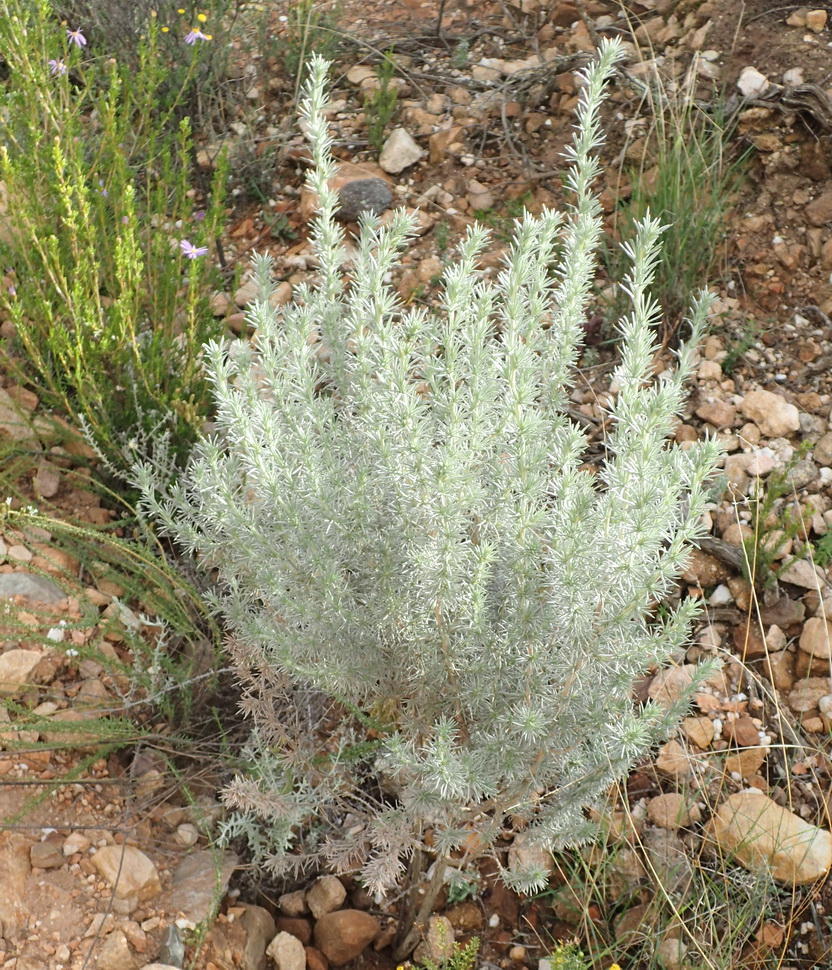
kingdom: Plantae
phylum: Tracheophyta
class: Magnoliopsida
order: Fabales
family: Fabaceae
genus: Aspalathus
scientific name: Aspalathus hystrix
